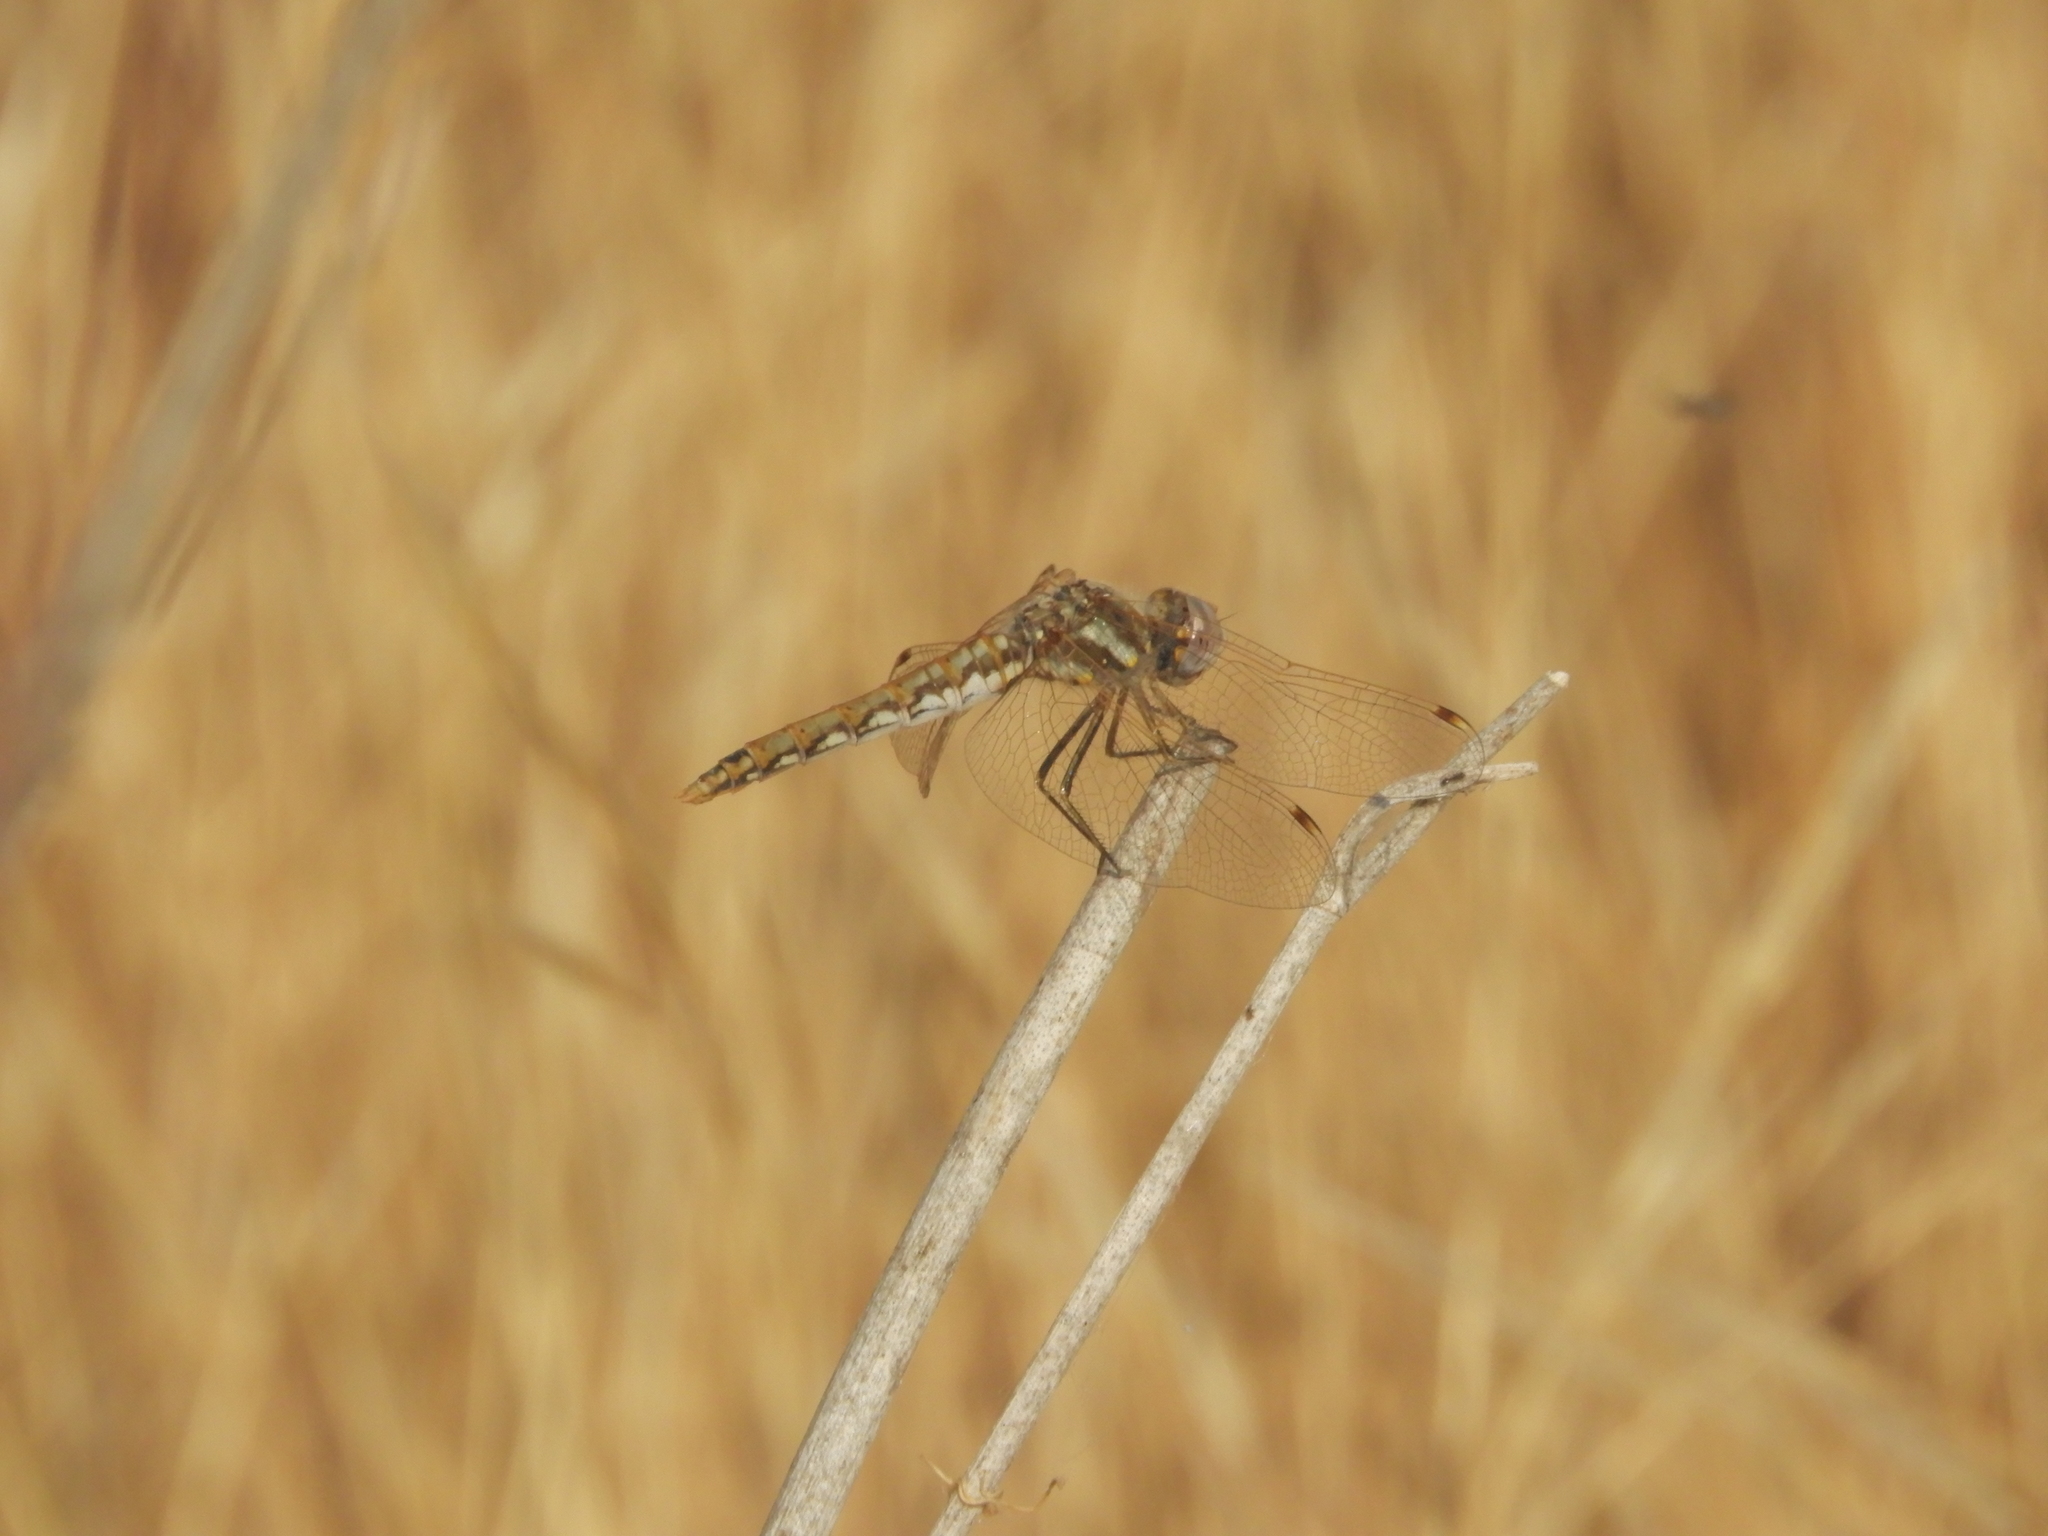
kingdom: Animalia
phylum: Arthropoda
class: Insecta
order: Odonata
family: Libellulidae
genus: Sympetrum
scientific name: Sympetrum corruptum
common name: Variegated meadowhawk
